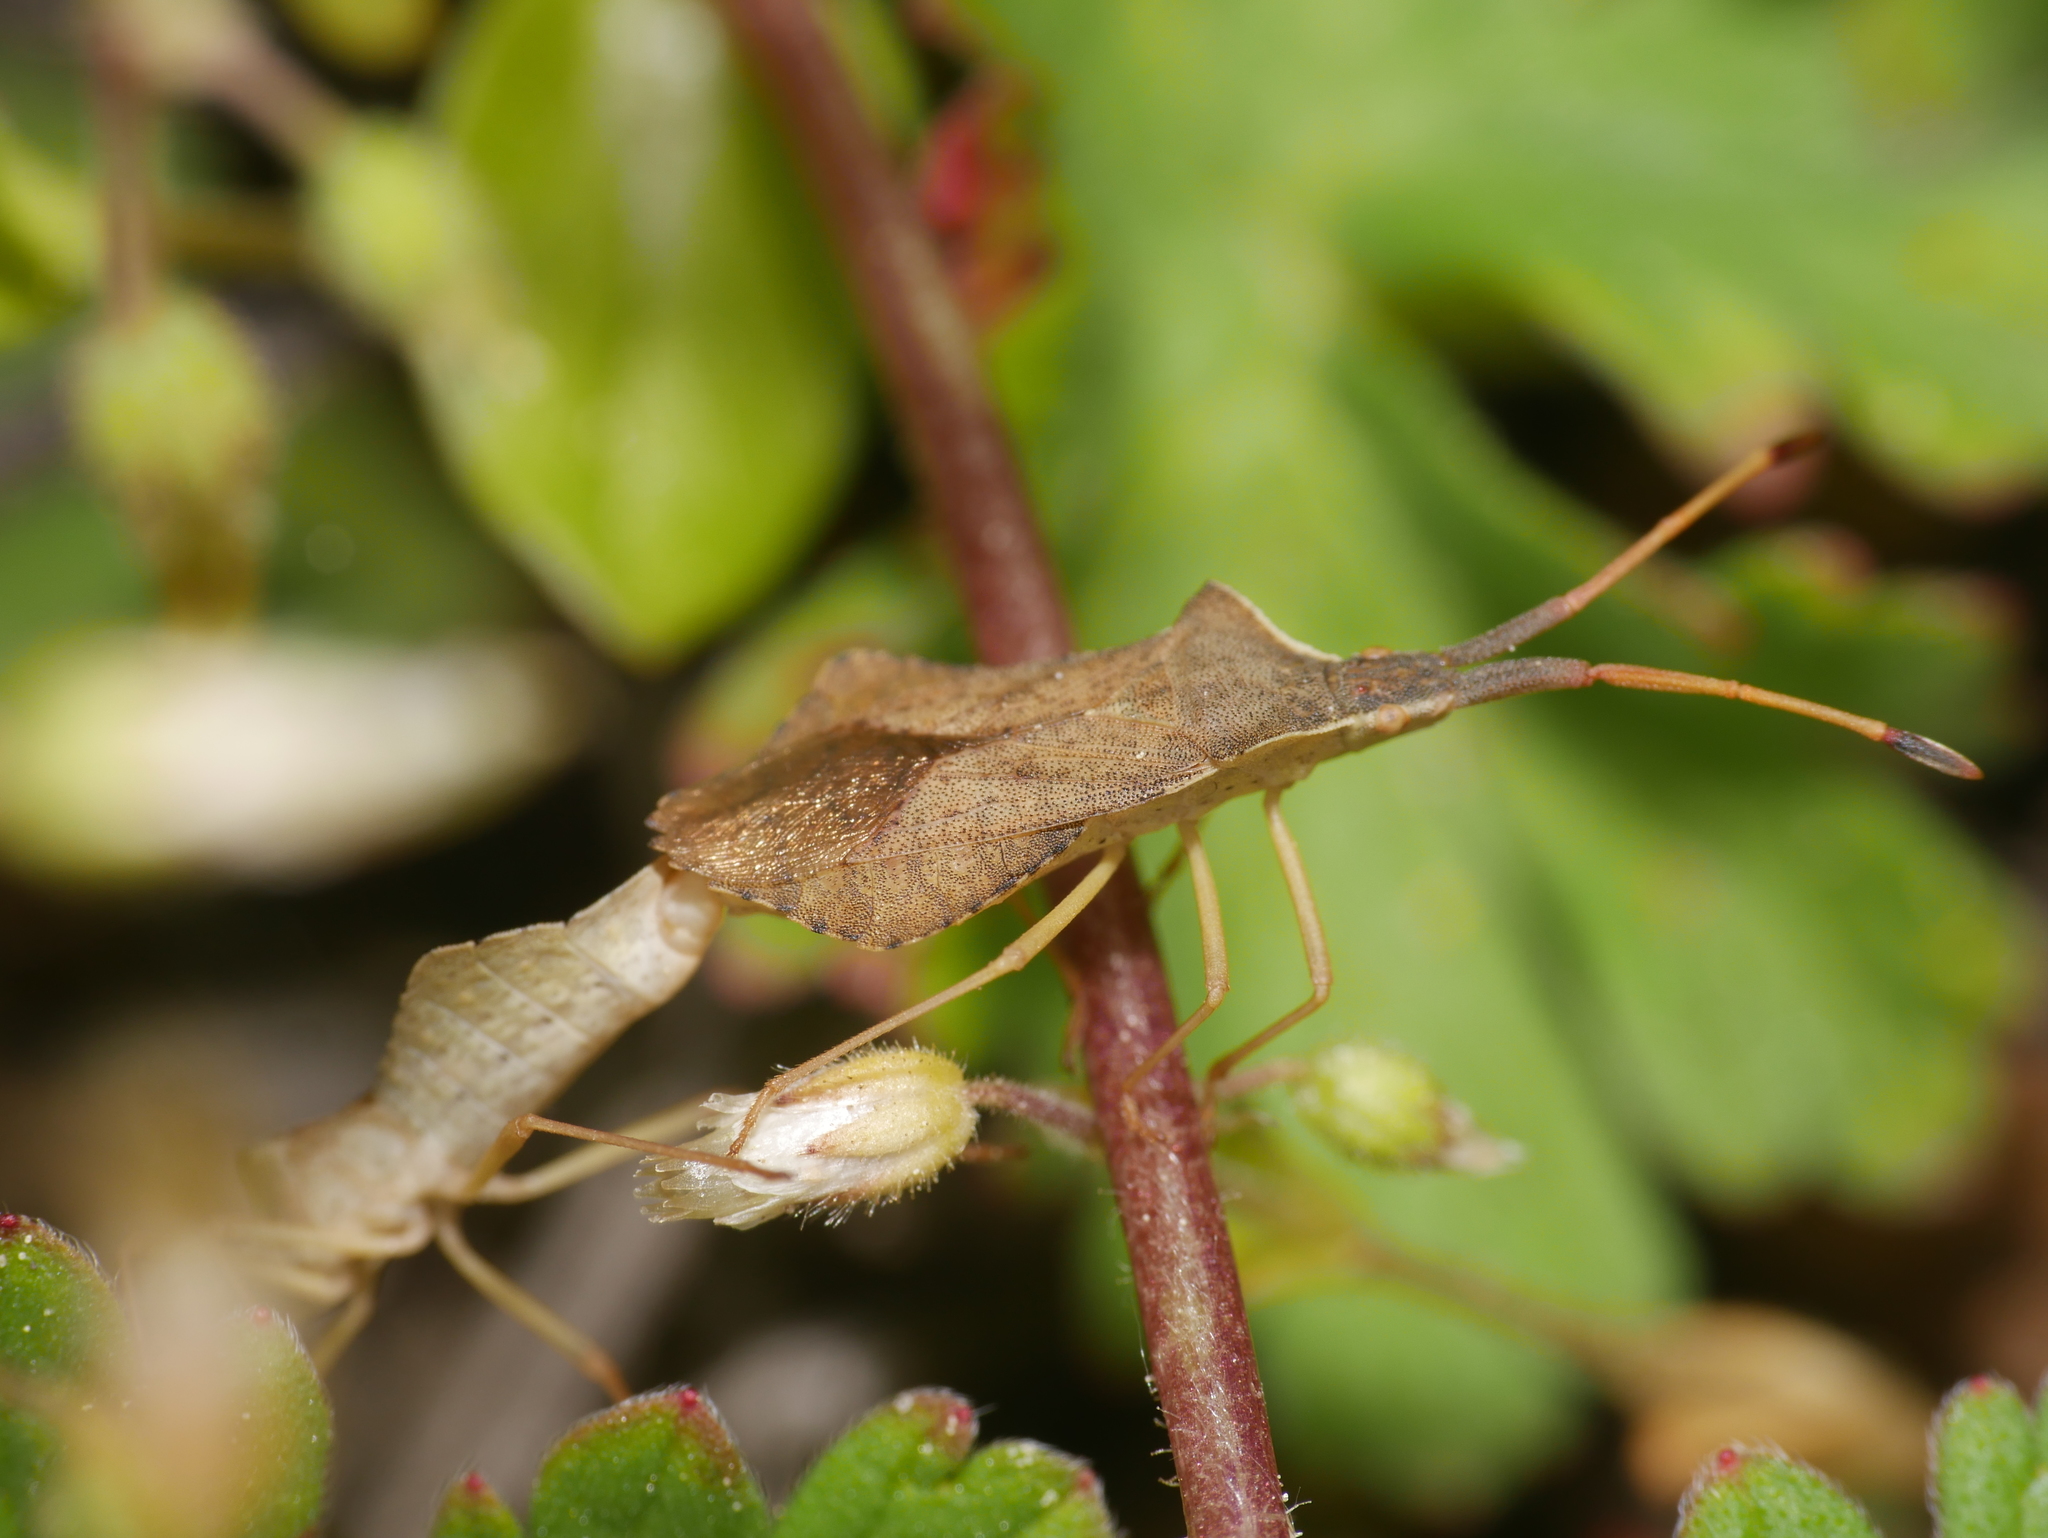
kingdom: Animalia
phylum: Arthropoda
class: Insecta
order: Hemiptera
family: Coreidae
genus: Syromastus
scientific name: Syromastus rhombeus
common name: Rhombic leatherbug
